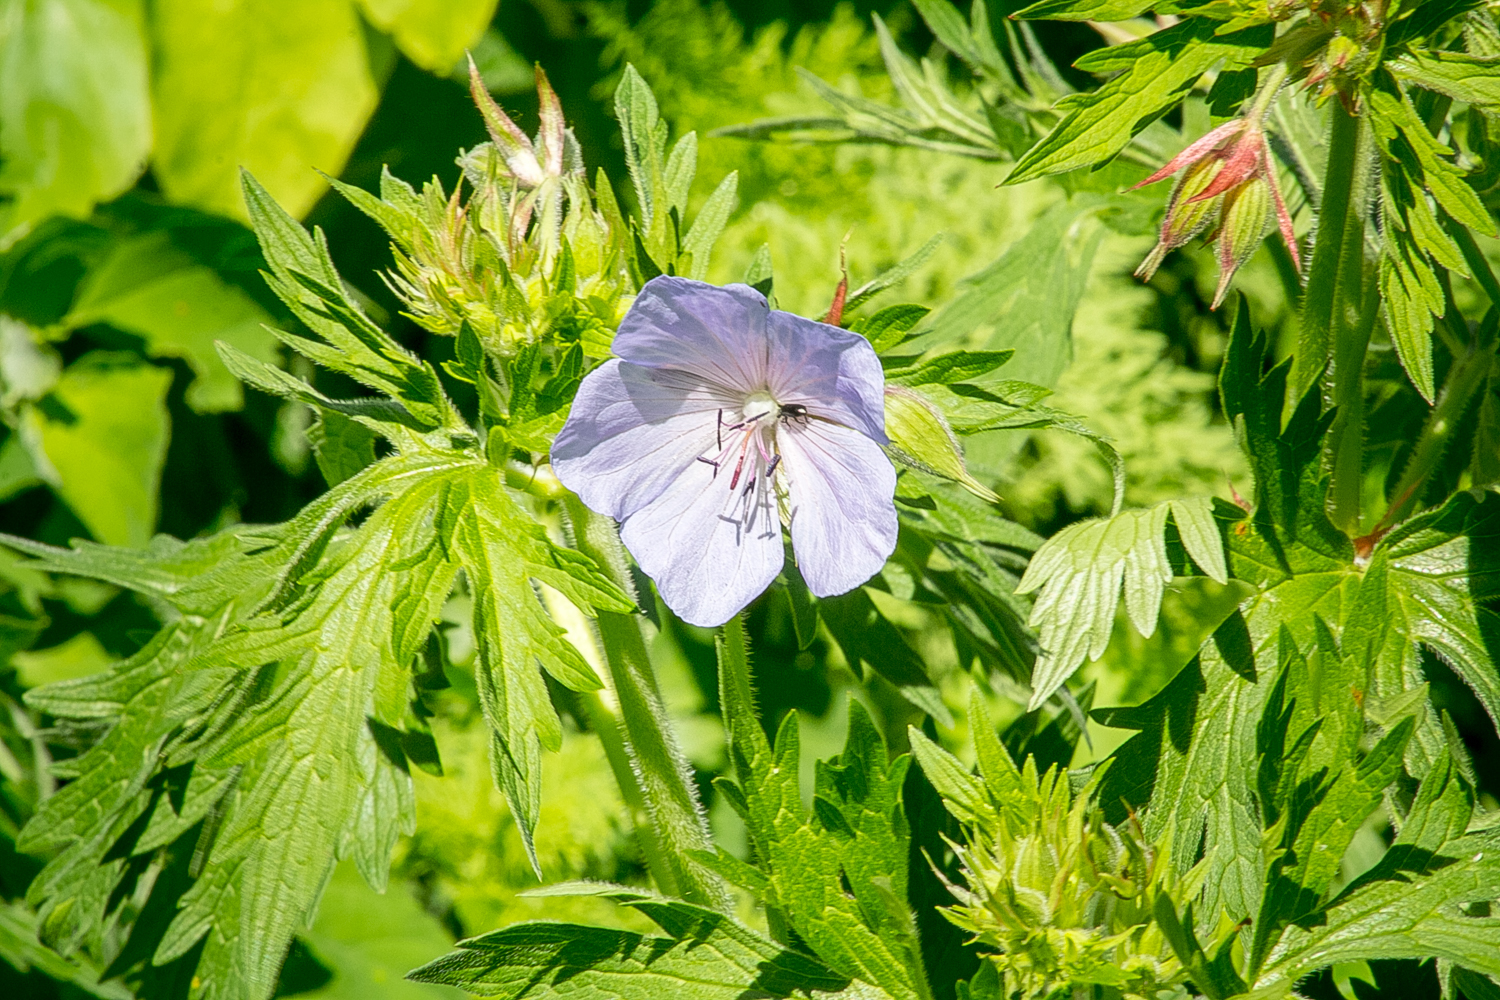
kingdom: Plantae
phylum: Tracheophyta
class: Magnoliopsida
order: Geraniales
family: Geraniaceae
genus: Geranium
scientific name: Geranium pratense
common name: Meadow crane's-bill
